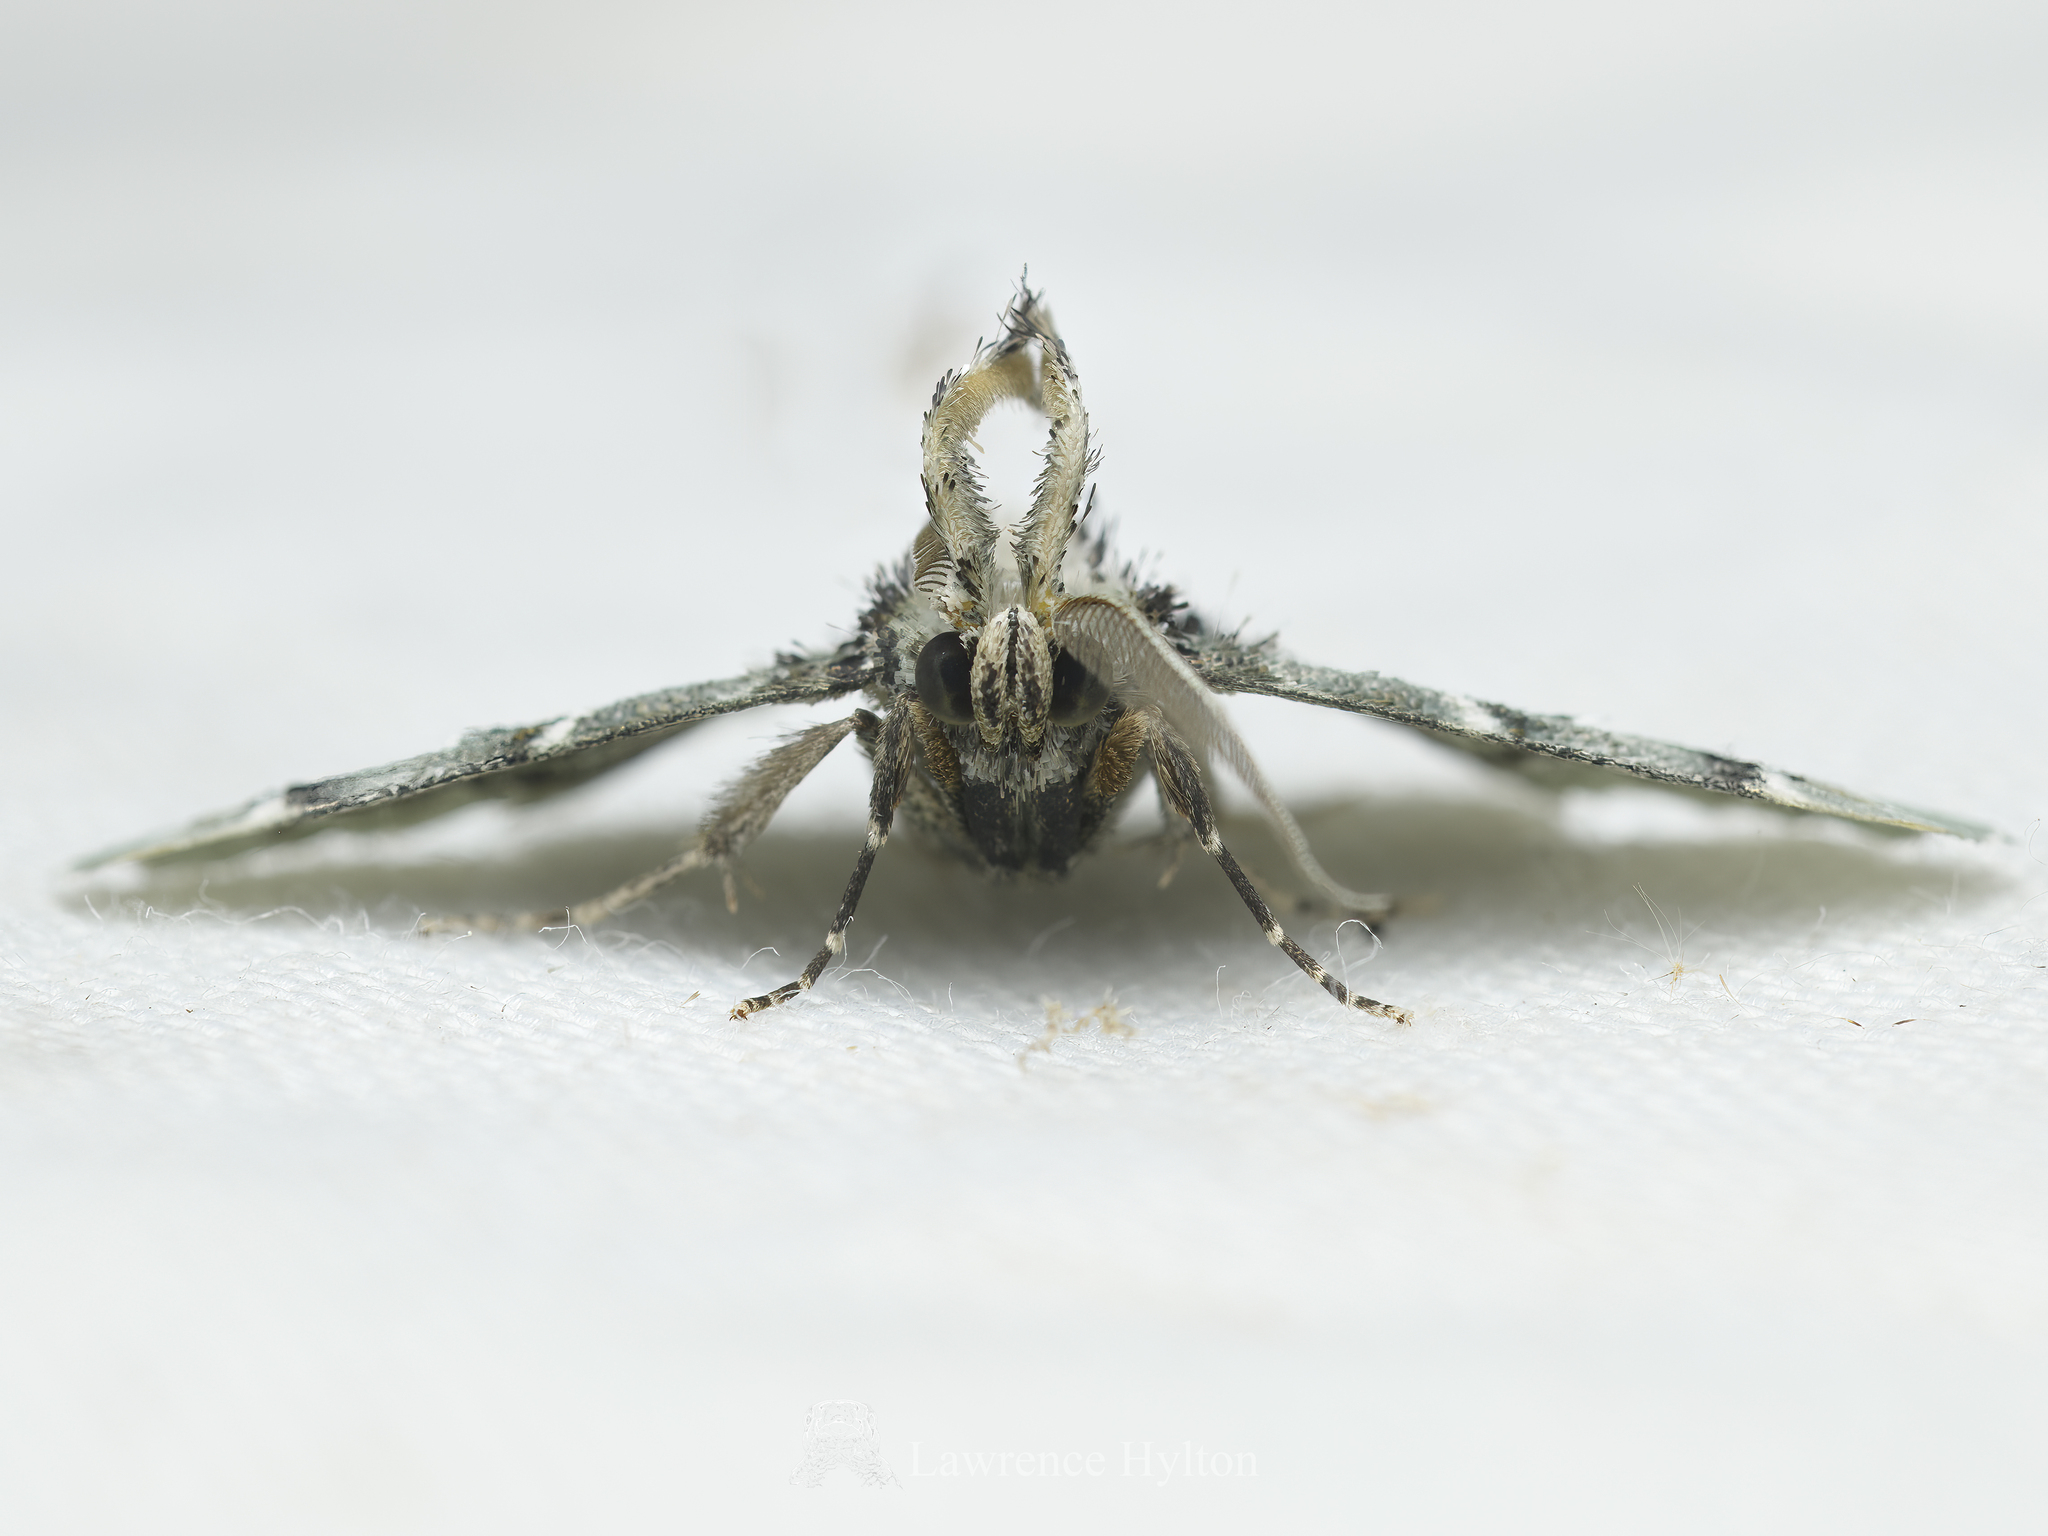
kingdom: Animalia
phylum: Arthropoda
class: Insecta
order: Lepidoptera
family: Pyralidae
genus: Coenodomus
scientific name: Coenodomus
